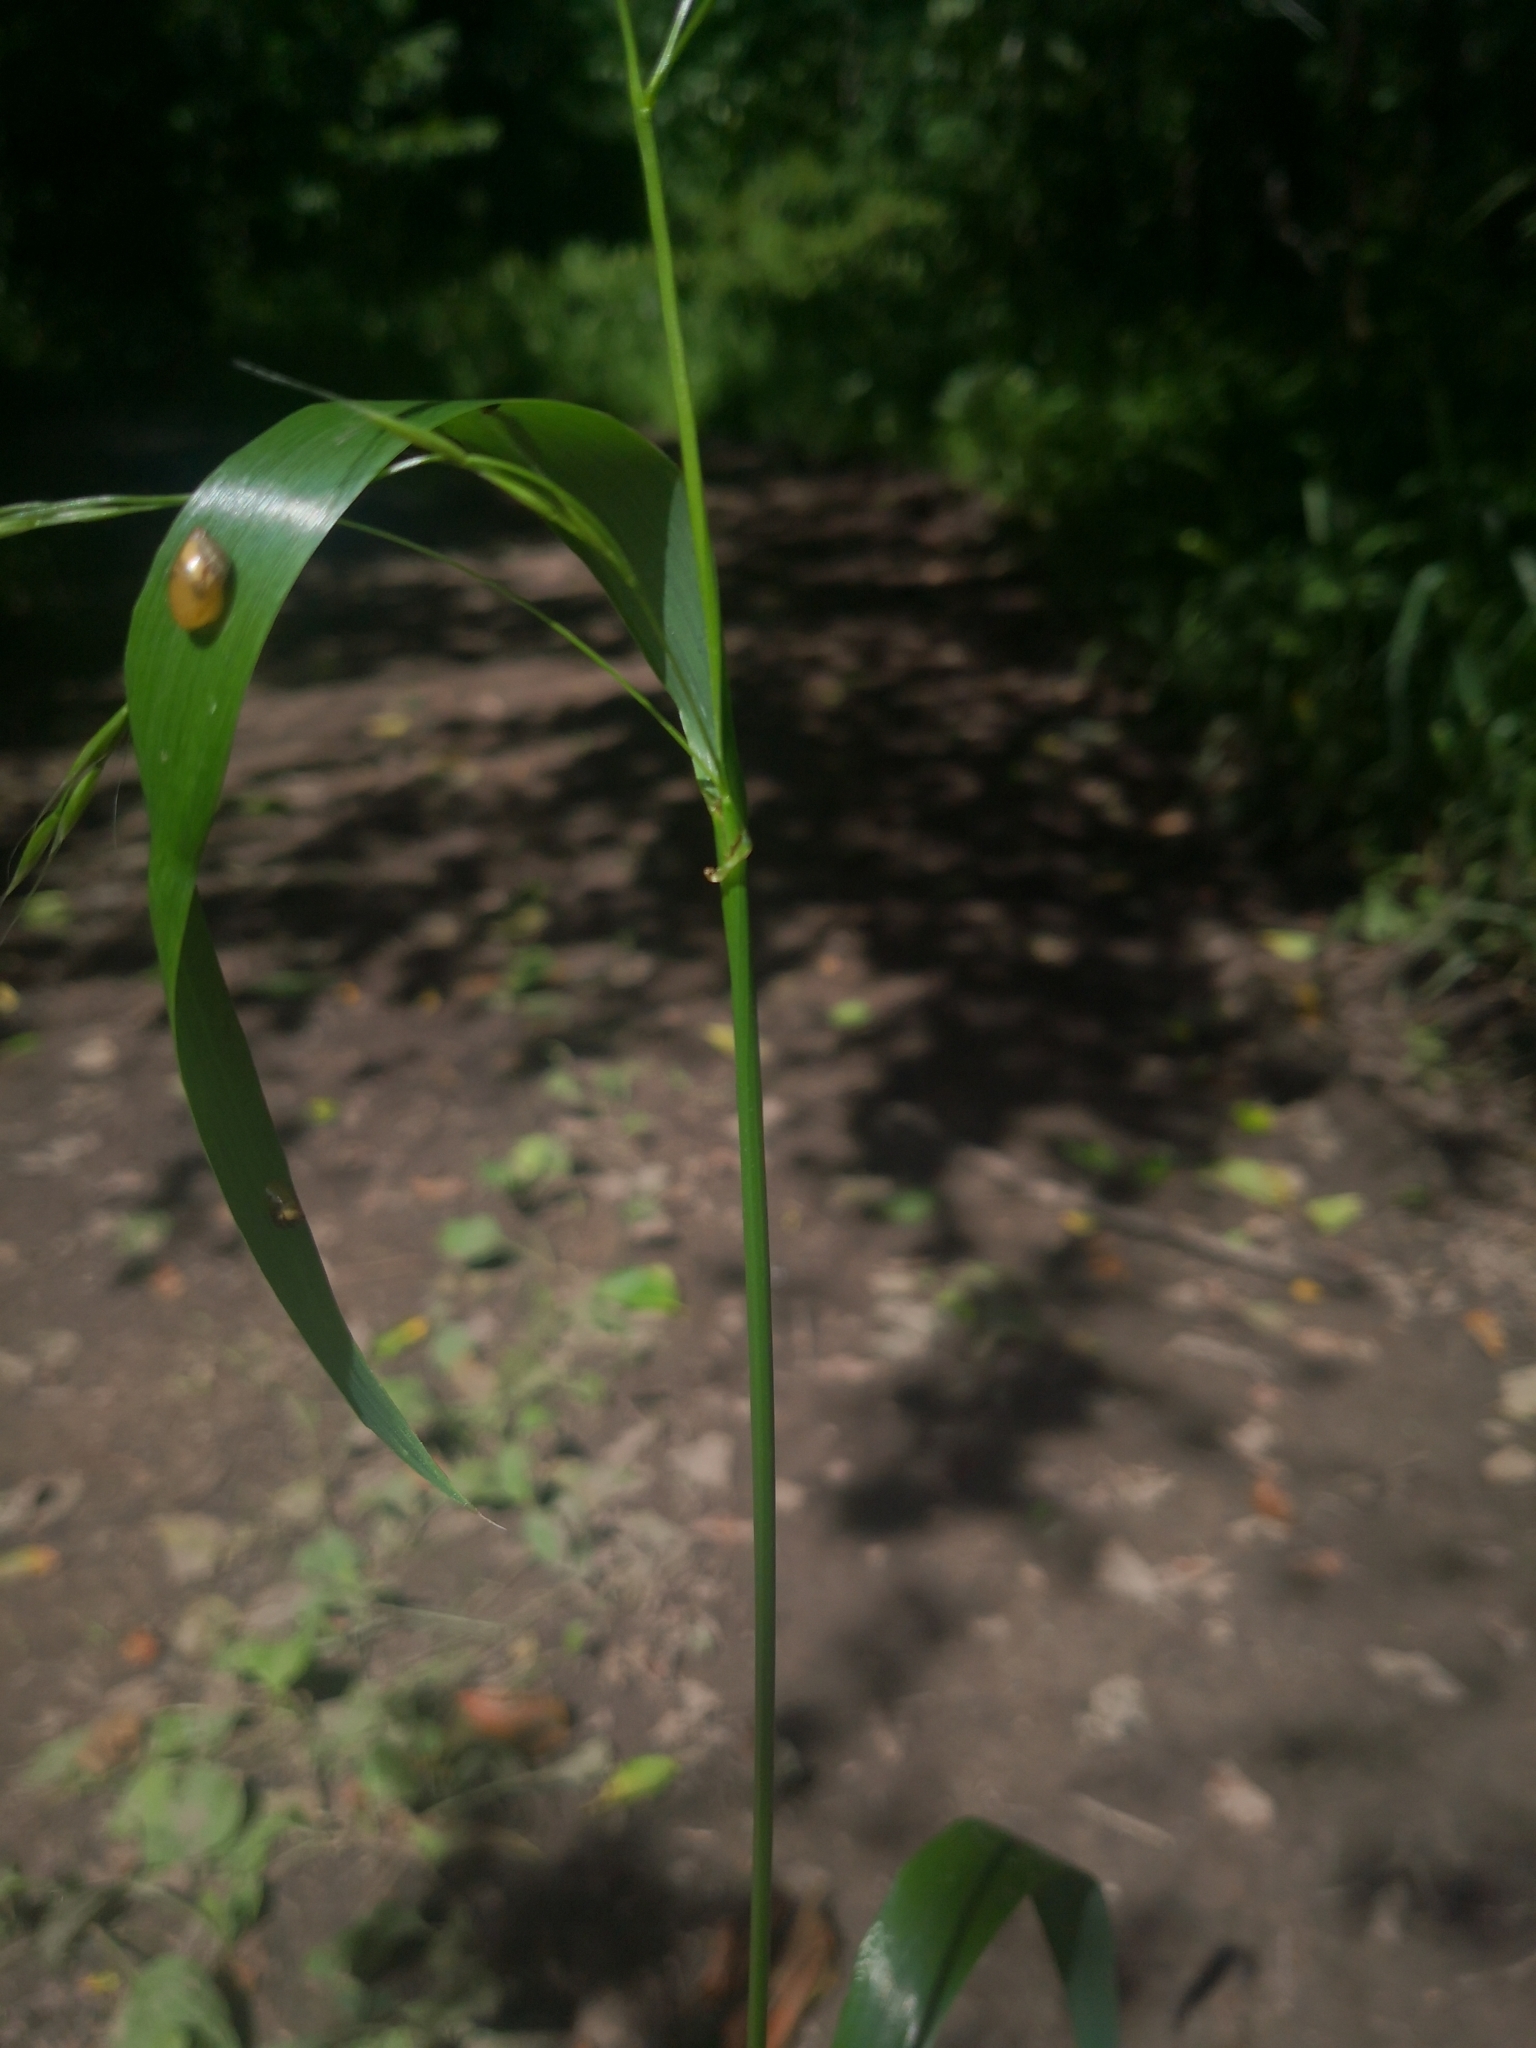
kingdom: Plantae
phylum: Tracheophyta
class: Liliopsida
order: Poales
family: Poaceae
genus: Lolium
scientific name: Lolium giganteum
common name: Giant fescue
